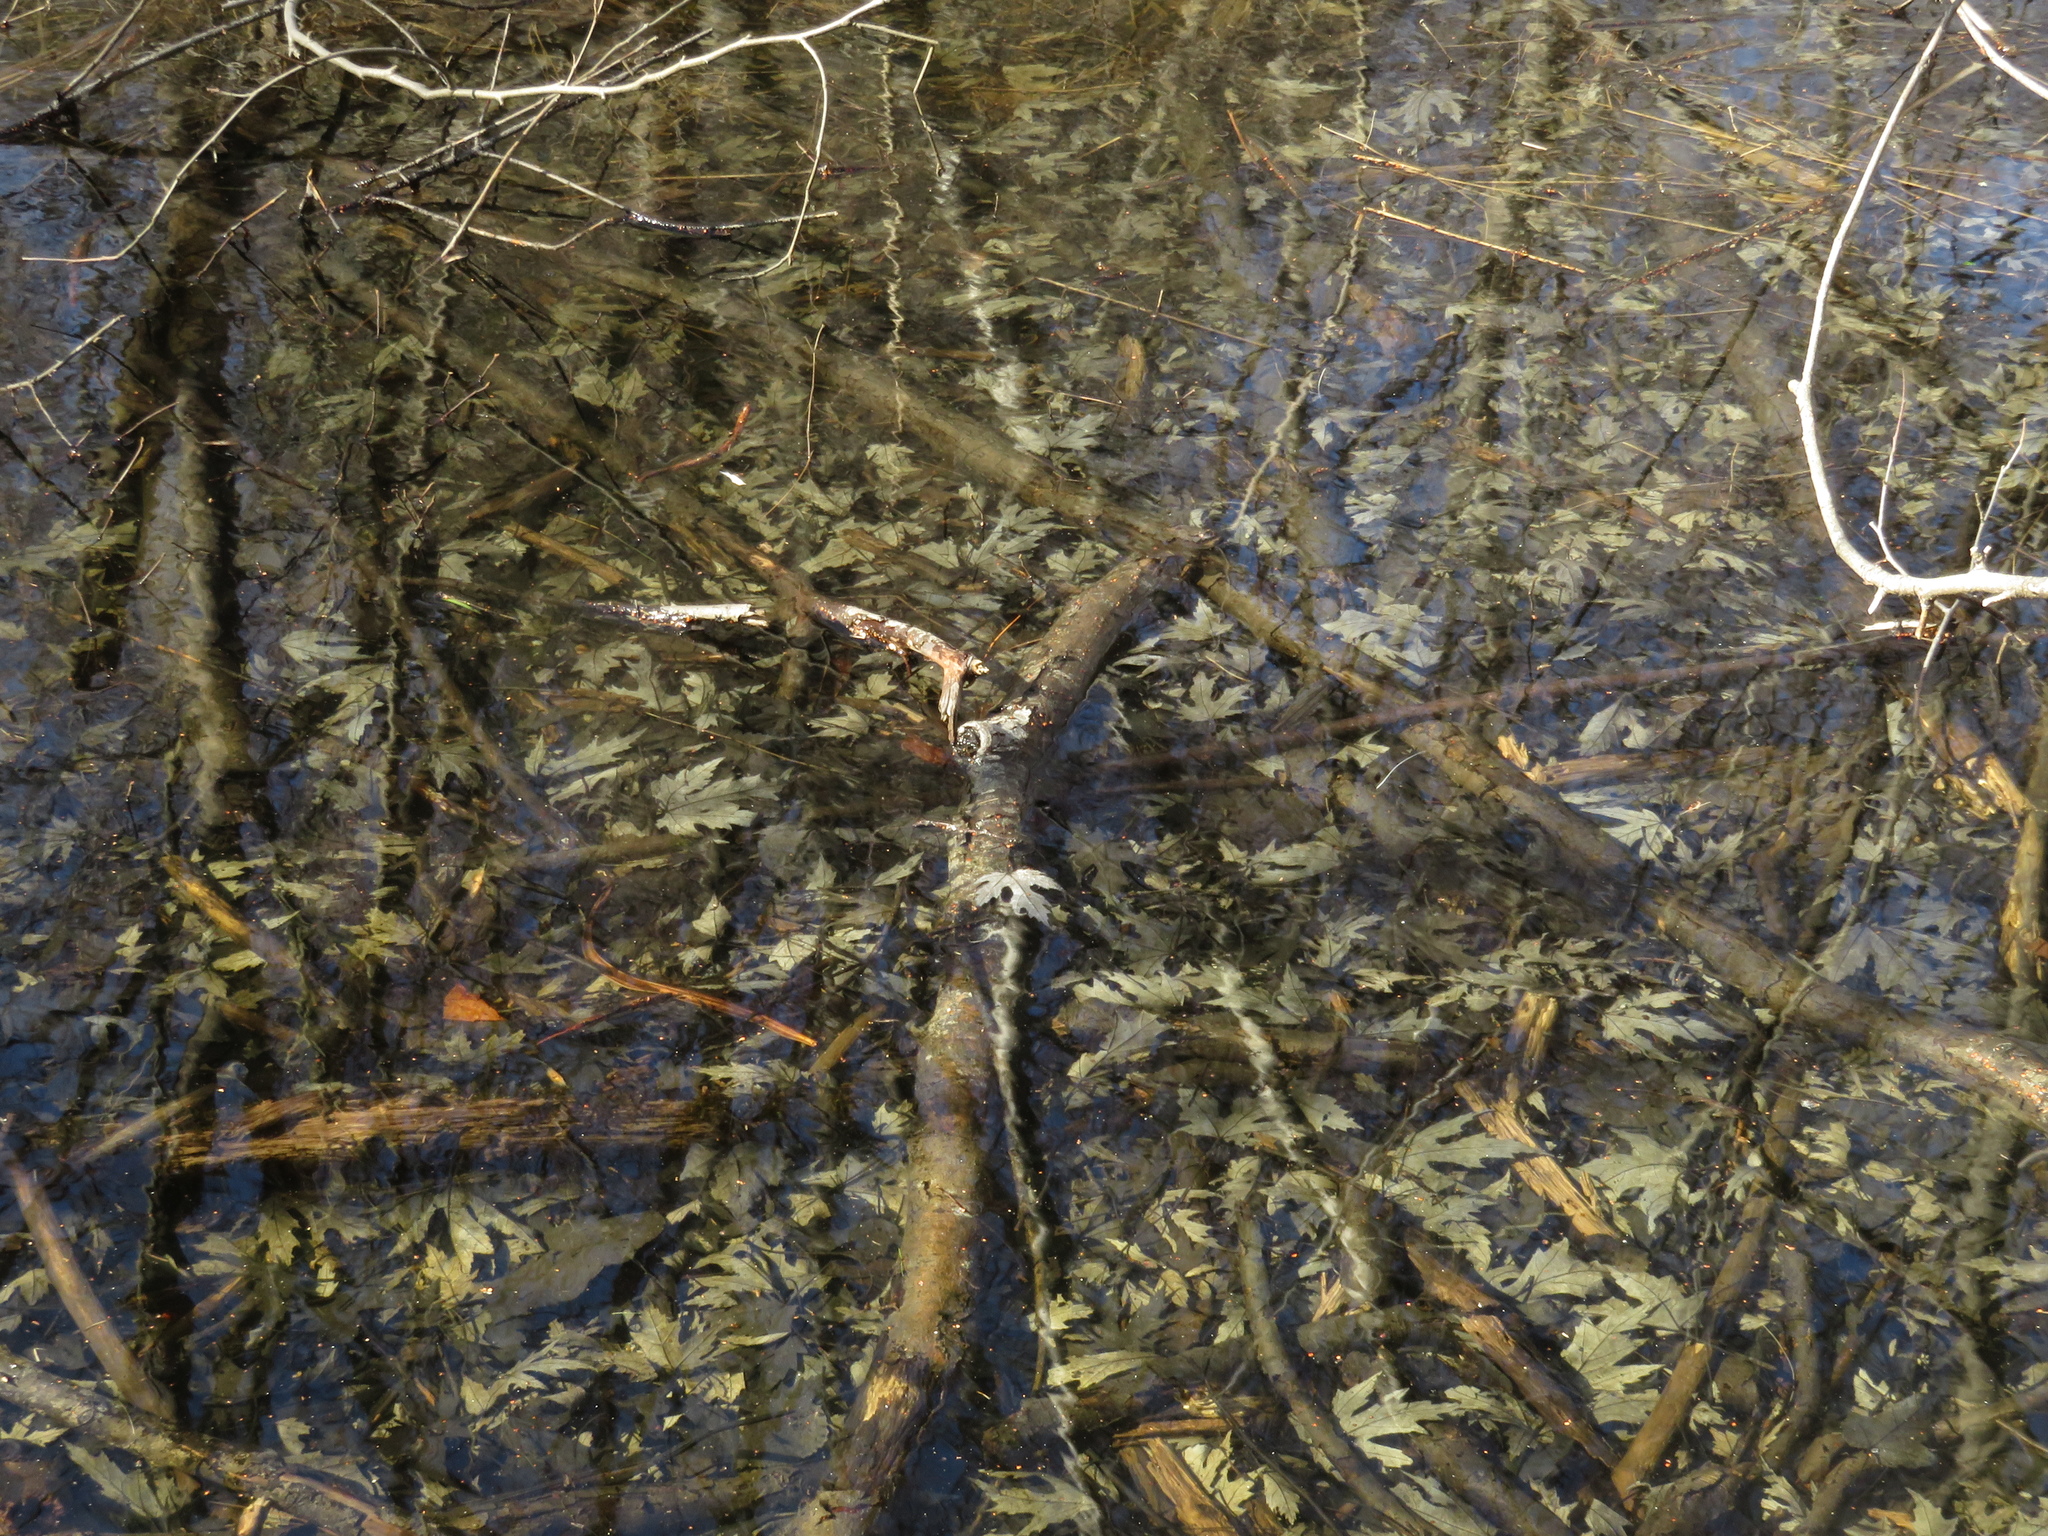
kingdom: Plantae
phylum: Tracheophyta
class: Magnoliopsida
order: Sapindales
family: Sapindaceae
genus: Acer
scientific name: Acer saccharinum
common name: Silver maple
